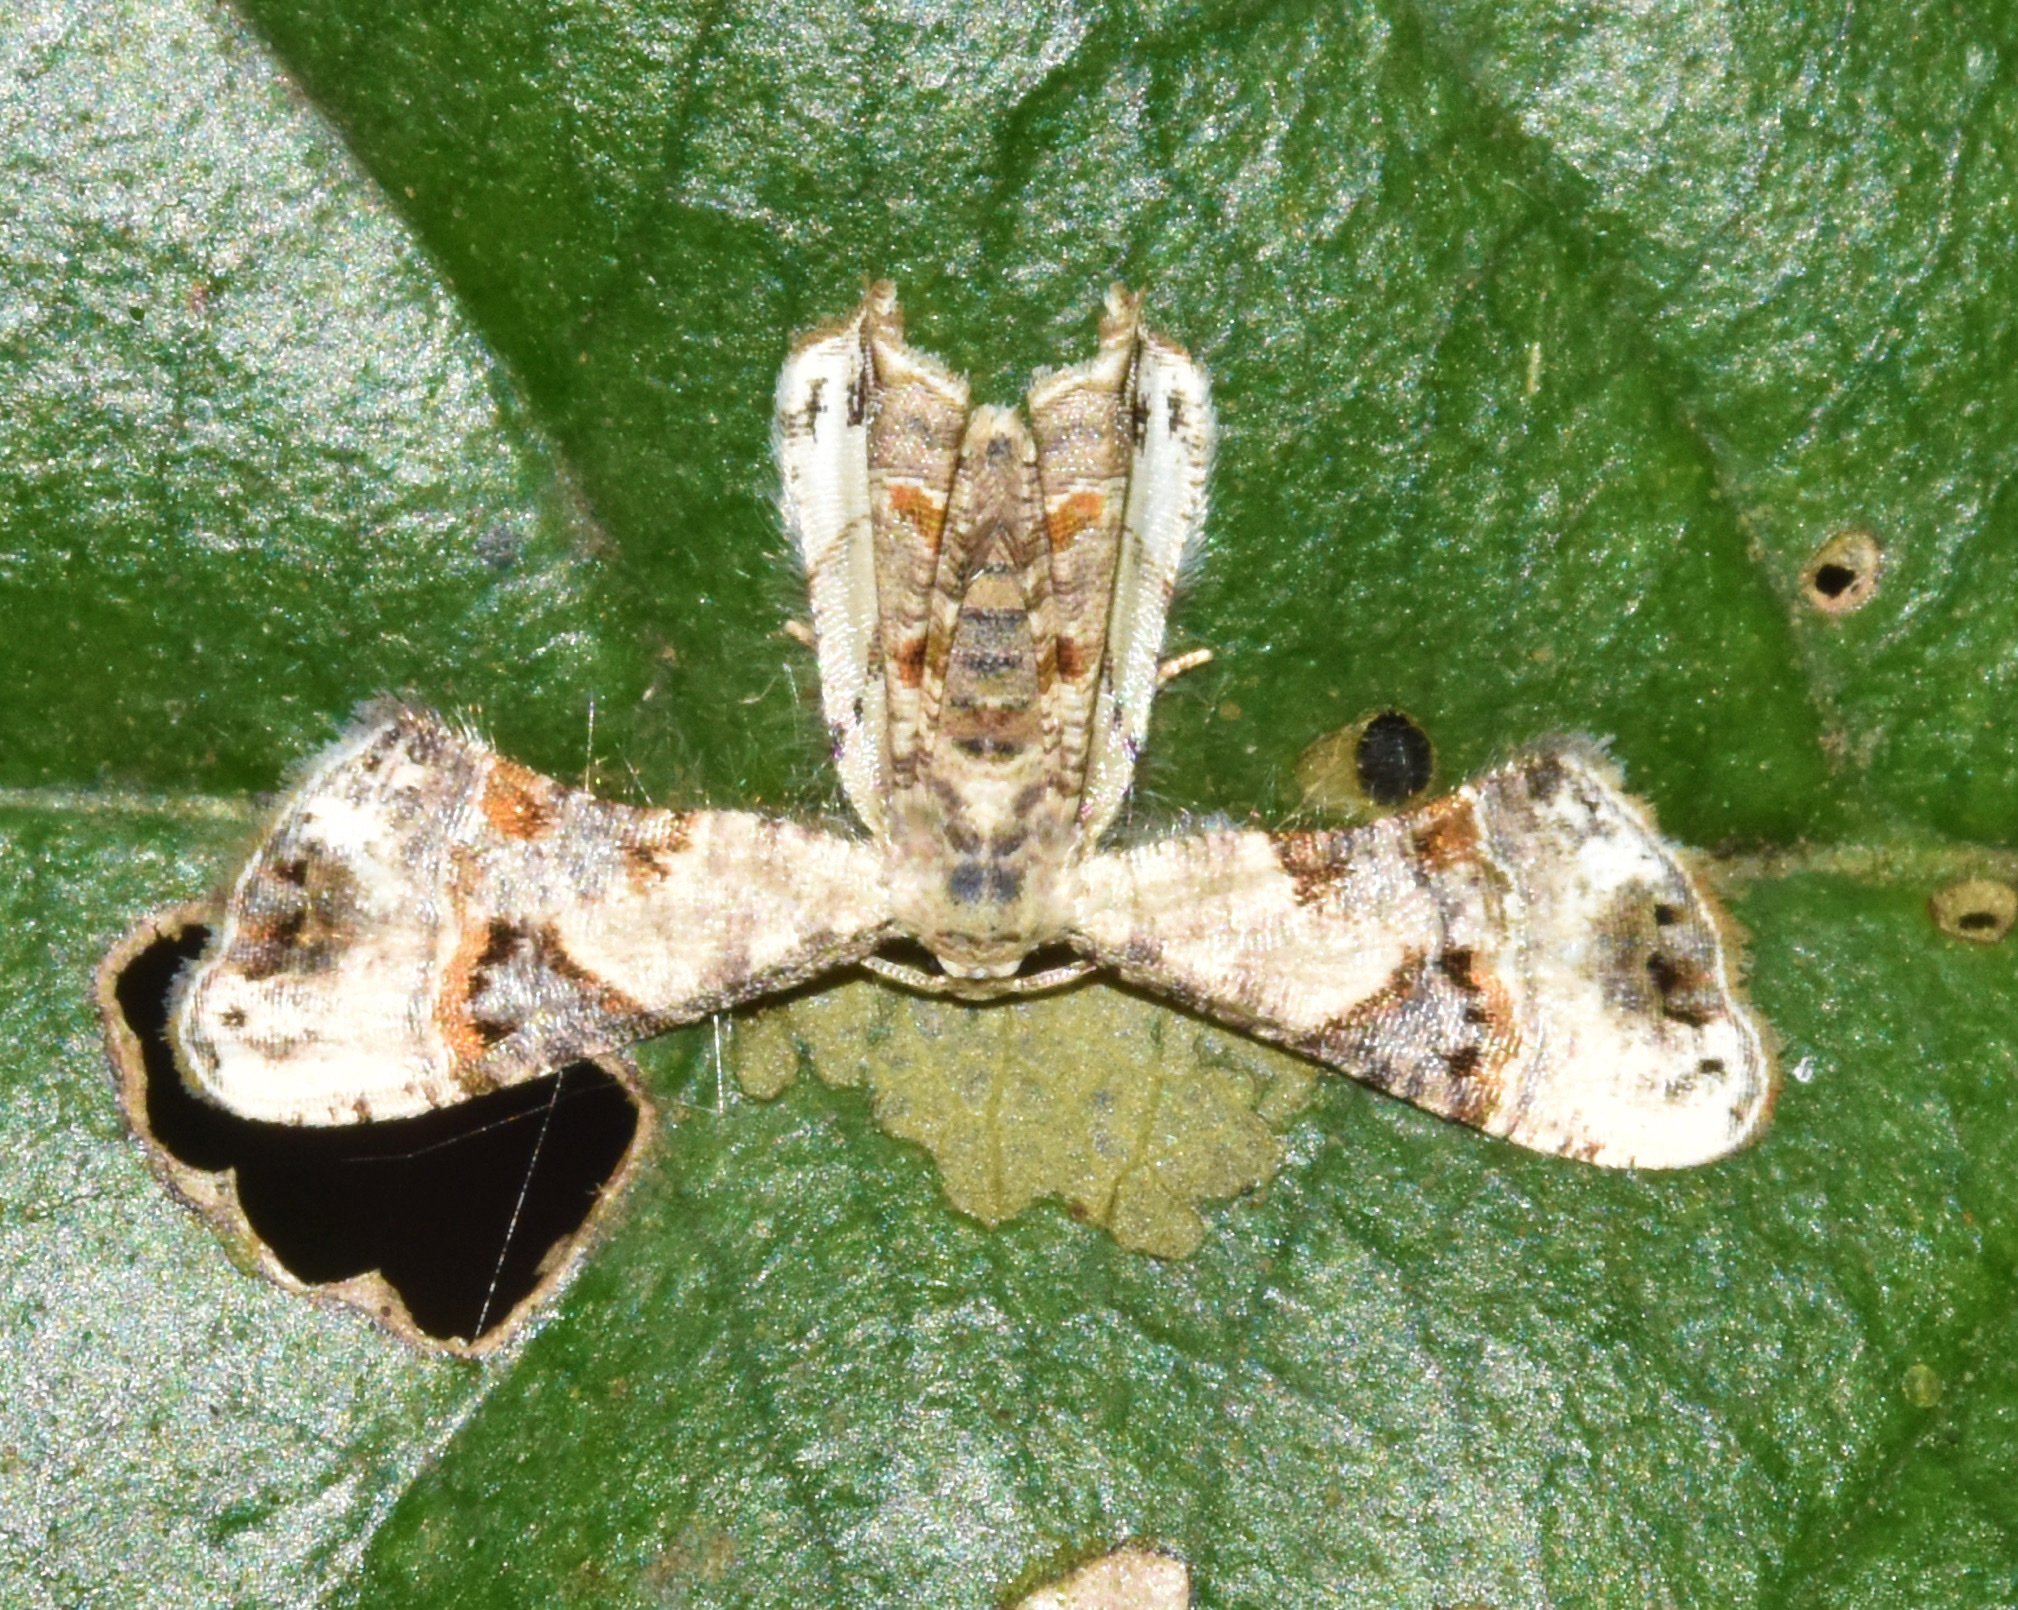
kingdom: Animalia
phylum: Arthropoda
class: Insecta
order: Lepidoptera
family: Uraniidae
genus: Leucoplema
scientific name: Leucoplema dohertyii
